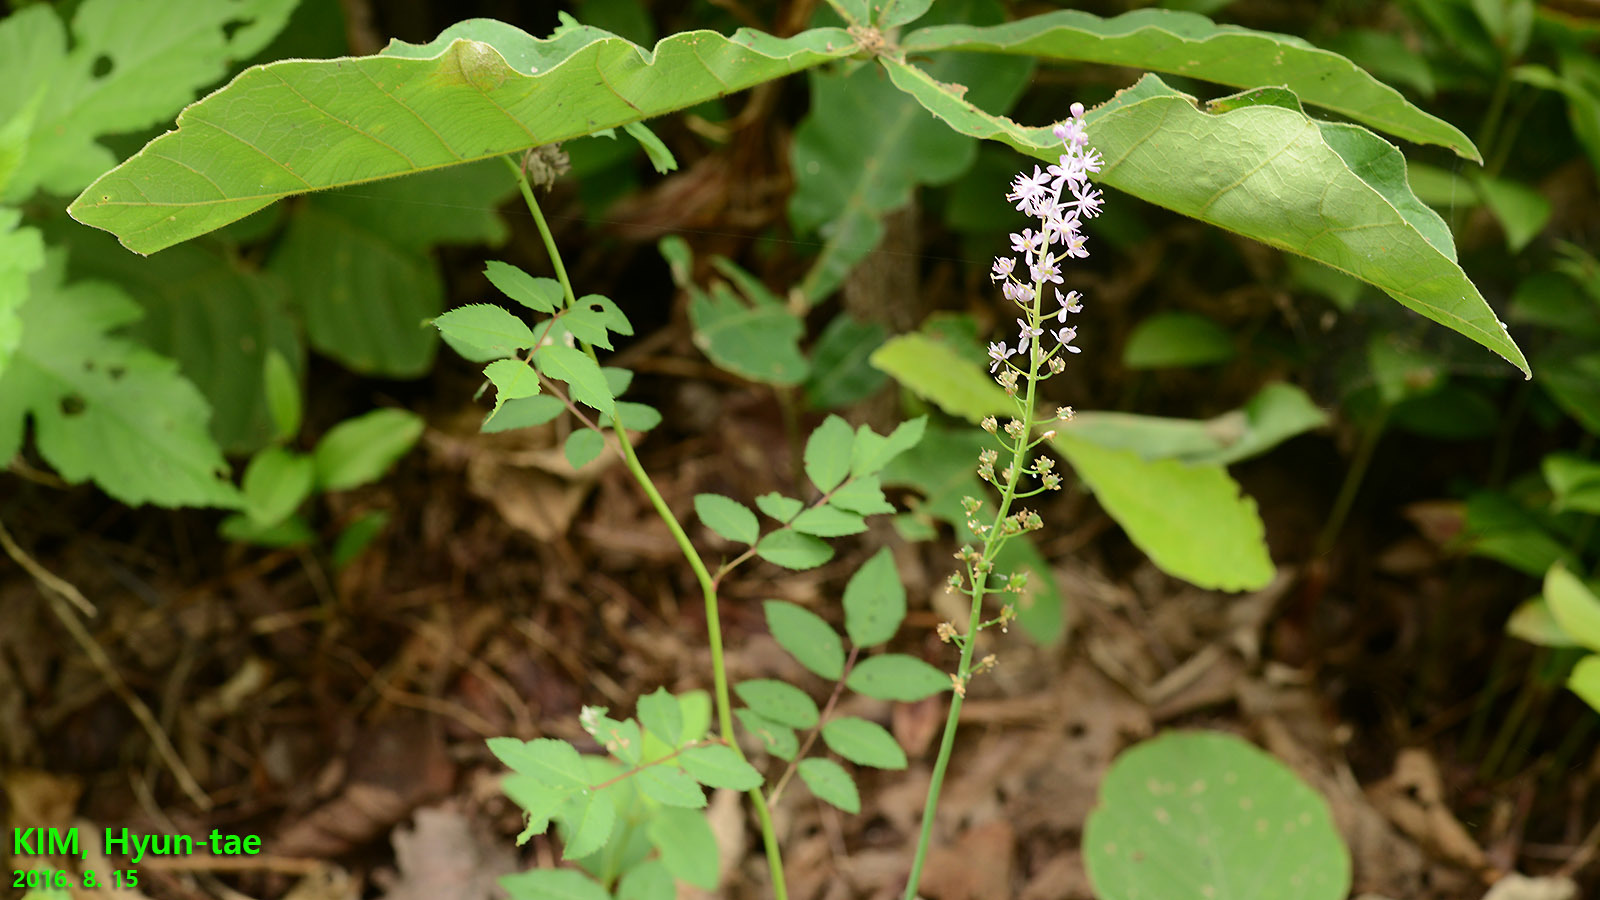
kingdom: Plantae
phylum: Tracheophyta
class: Liliopsida
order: Asparagales
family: Asparagaceae
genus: Barnardia
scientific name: Barnardia japonica
